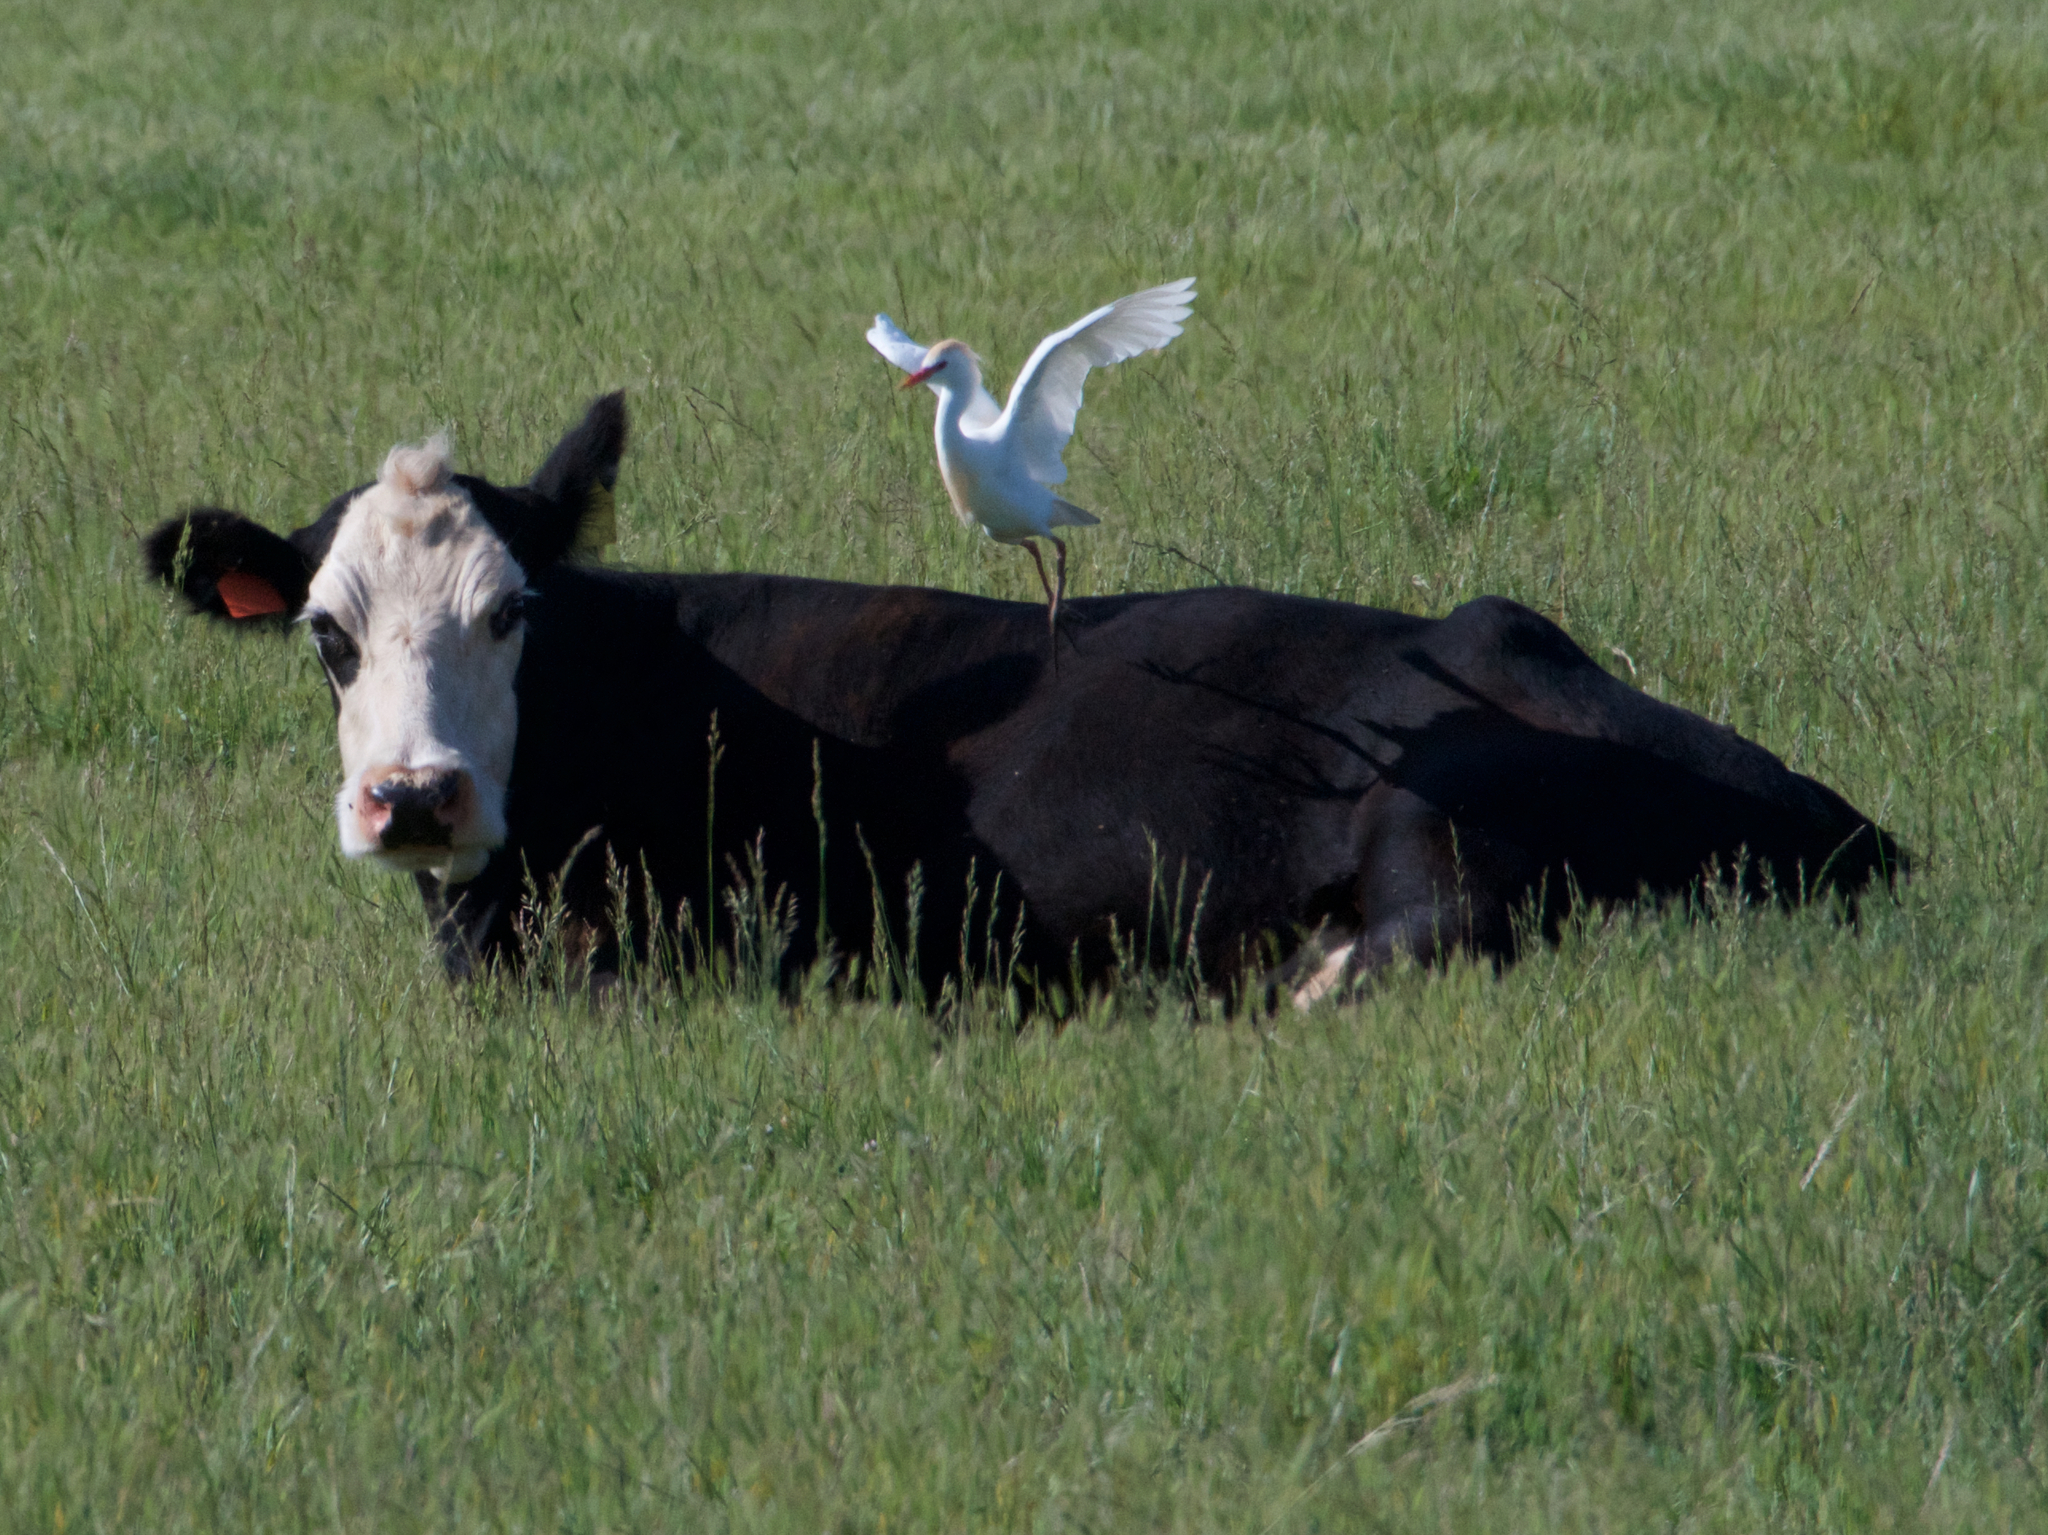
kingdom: Animalia
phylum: Chordata
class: Aves
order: Pelecaniformes
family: Ardeidae
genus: Bubulcus
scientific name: Bubulcus ibis
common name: Cattle egret
